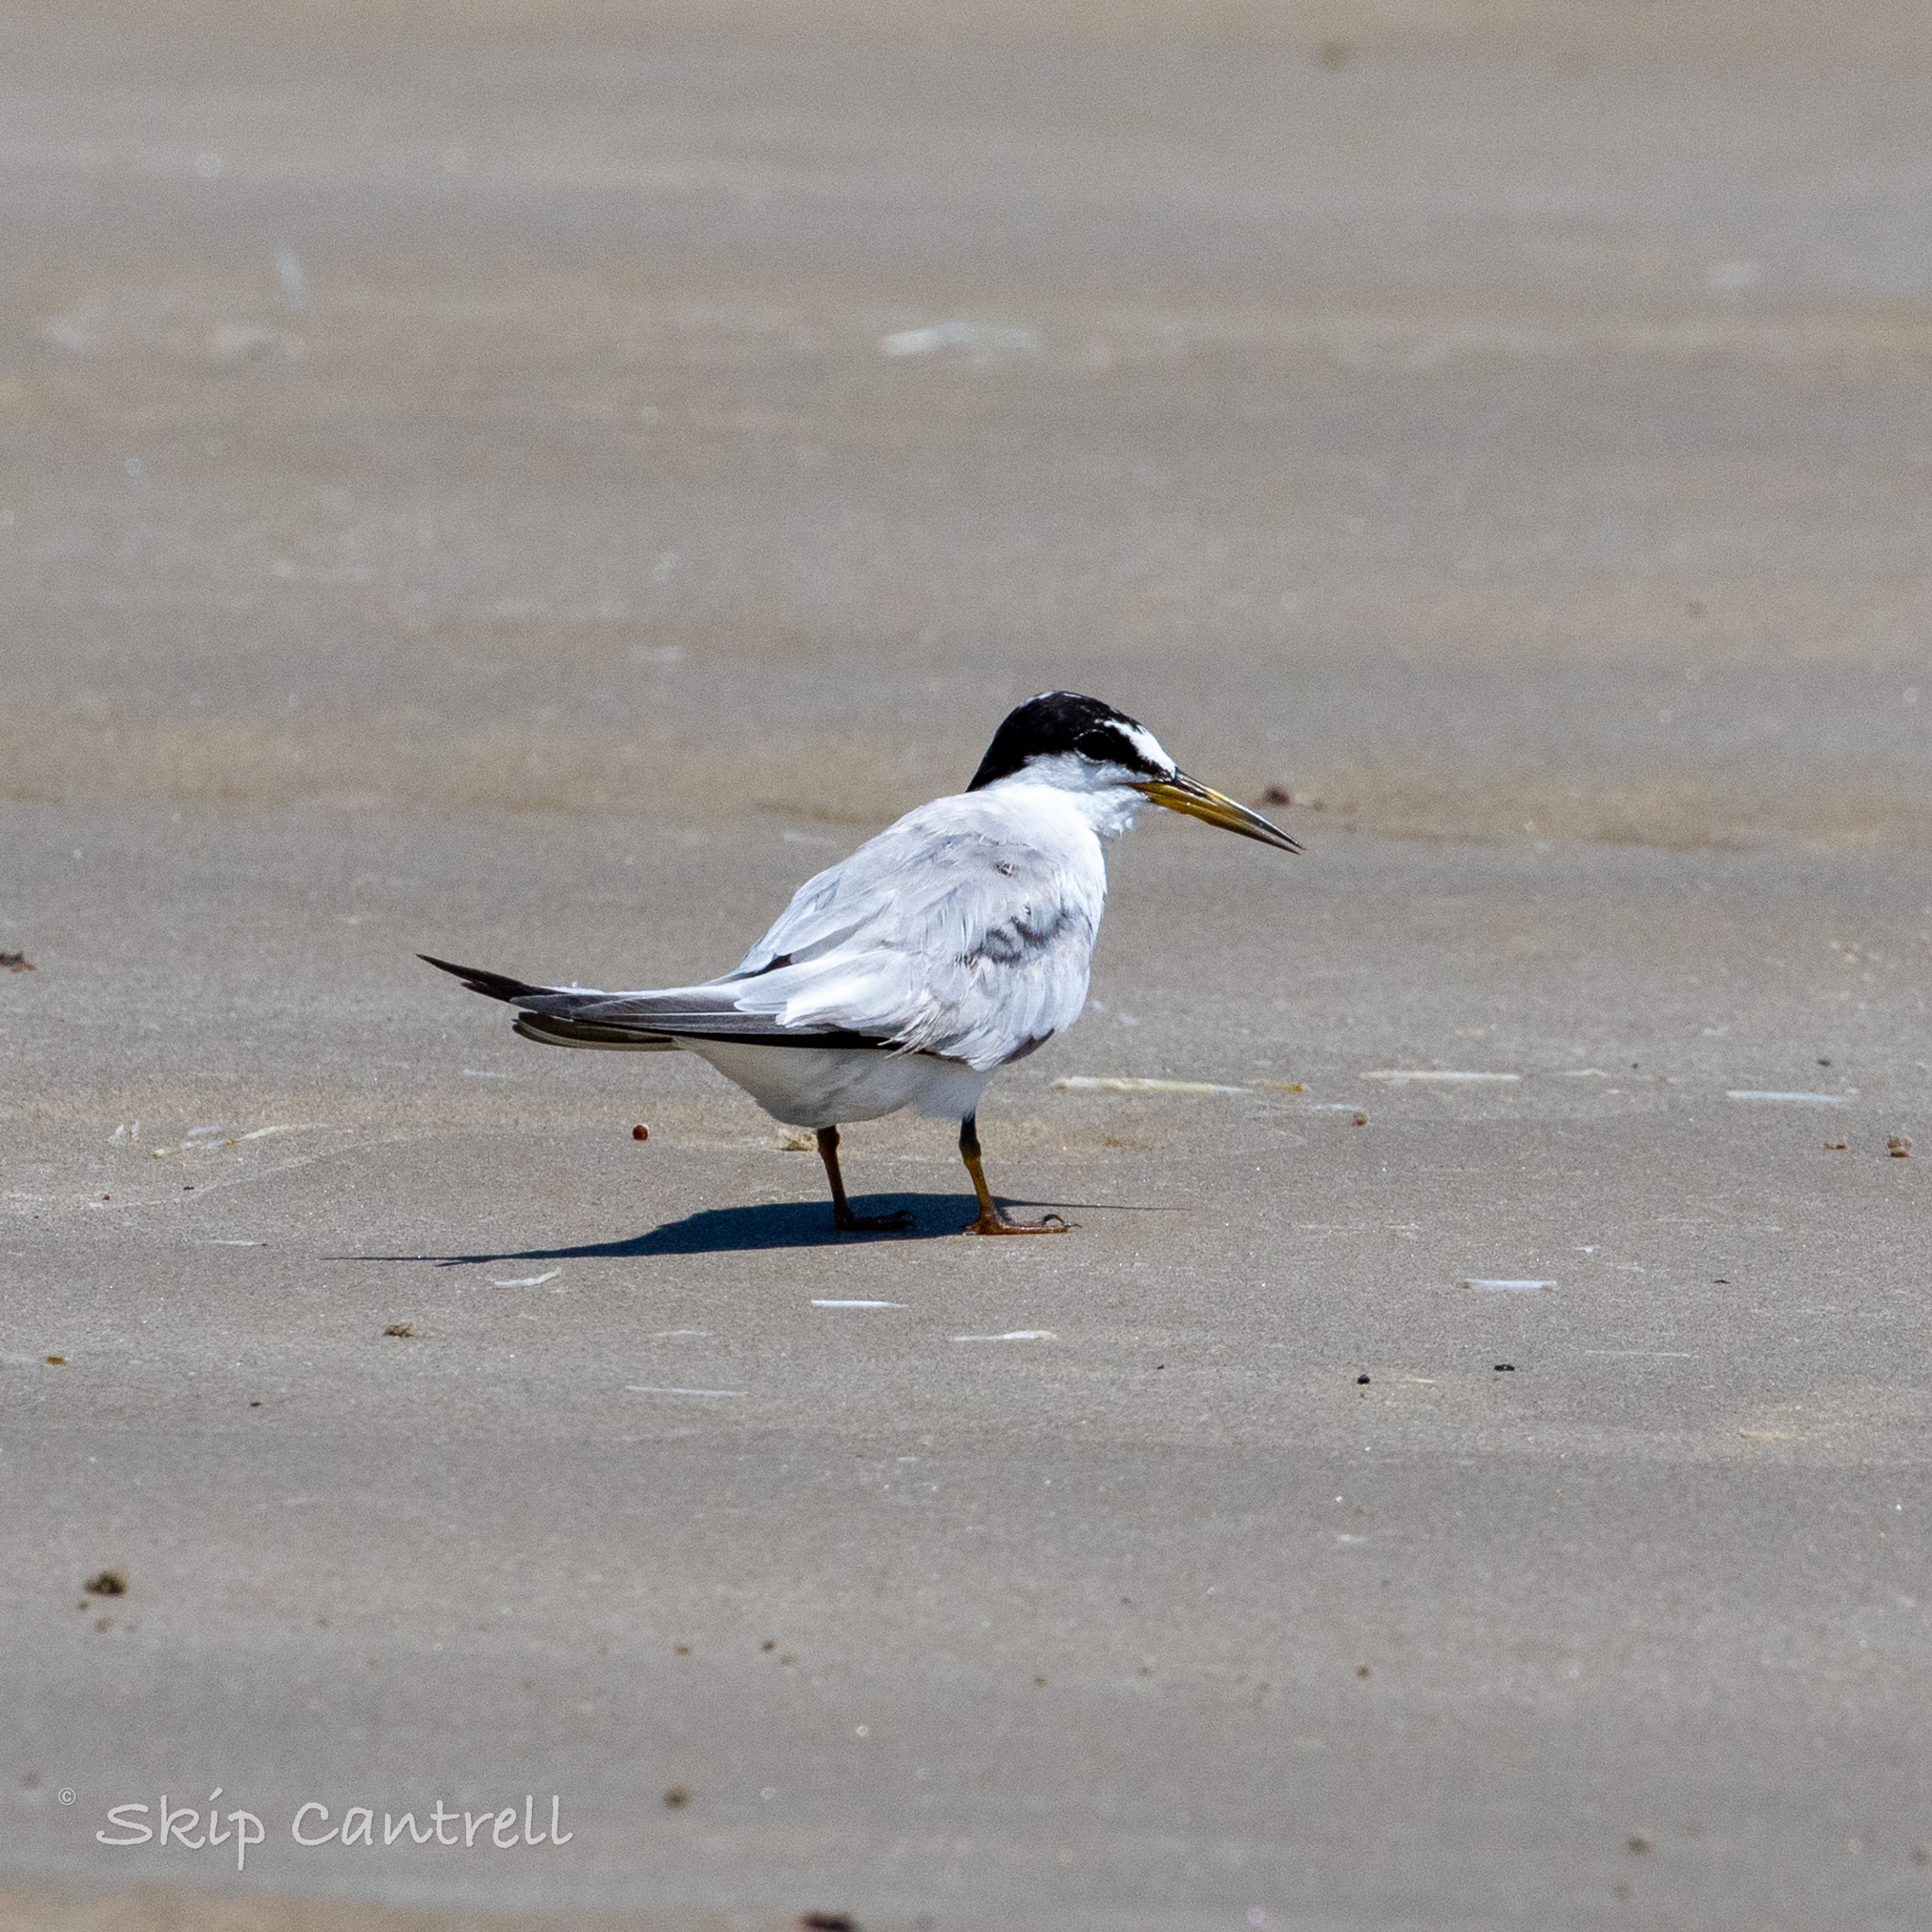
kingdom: Animalia
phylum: Chordata
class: Aves
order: Charadriiformes
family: Laridae
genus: Sternula
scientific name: Sternula antillarum
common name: Least tern
